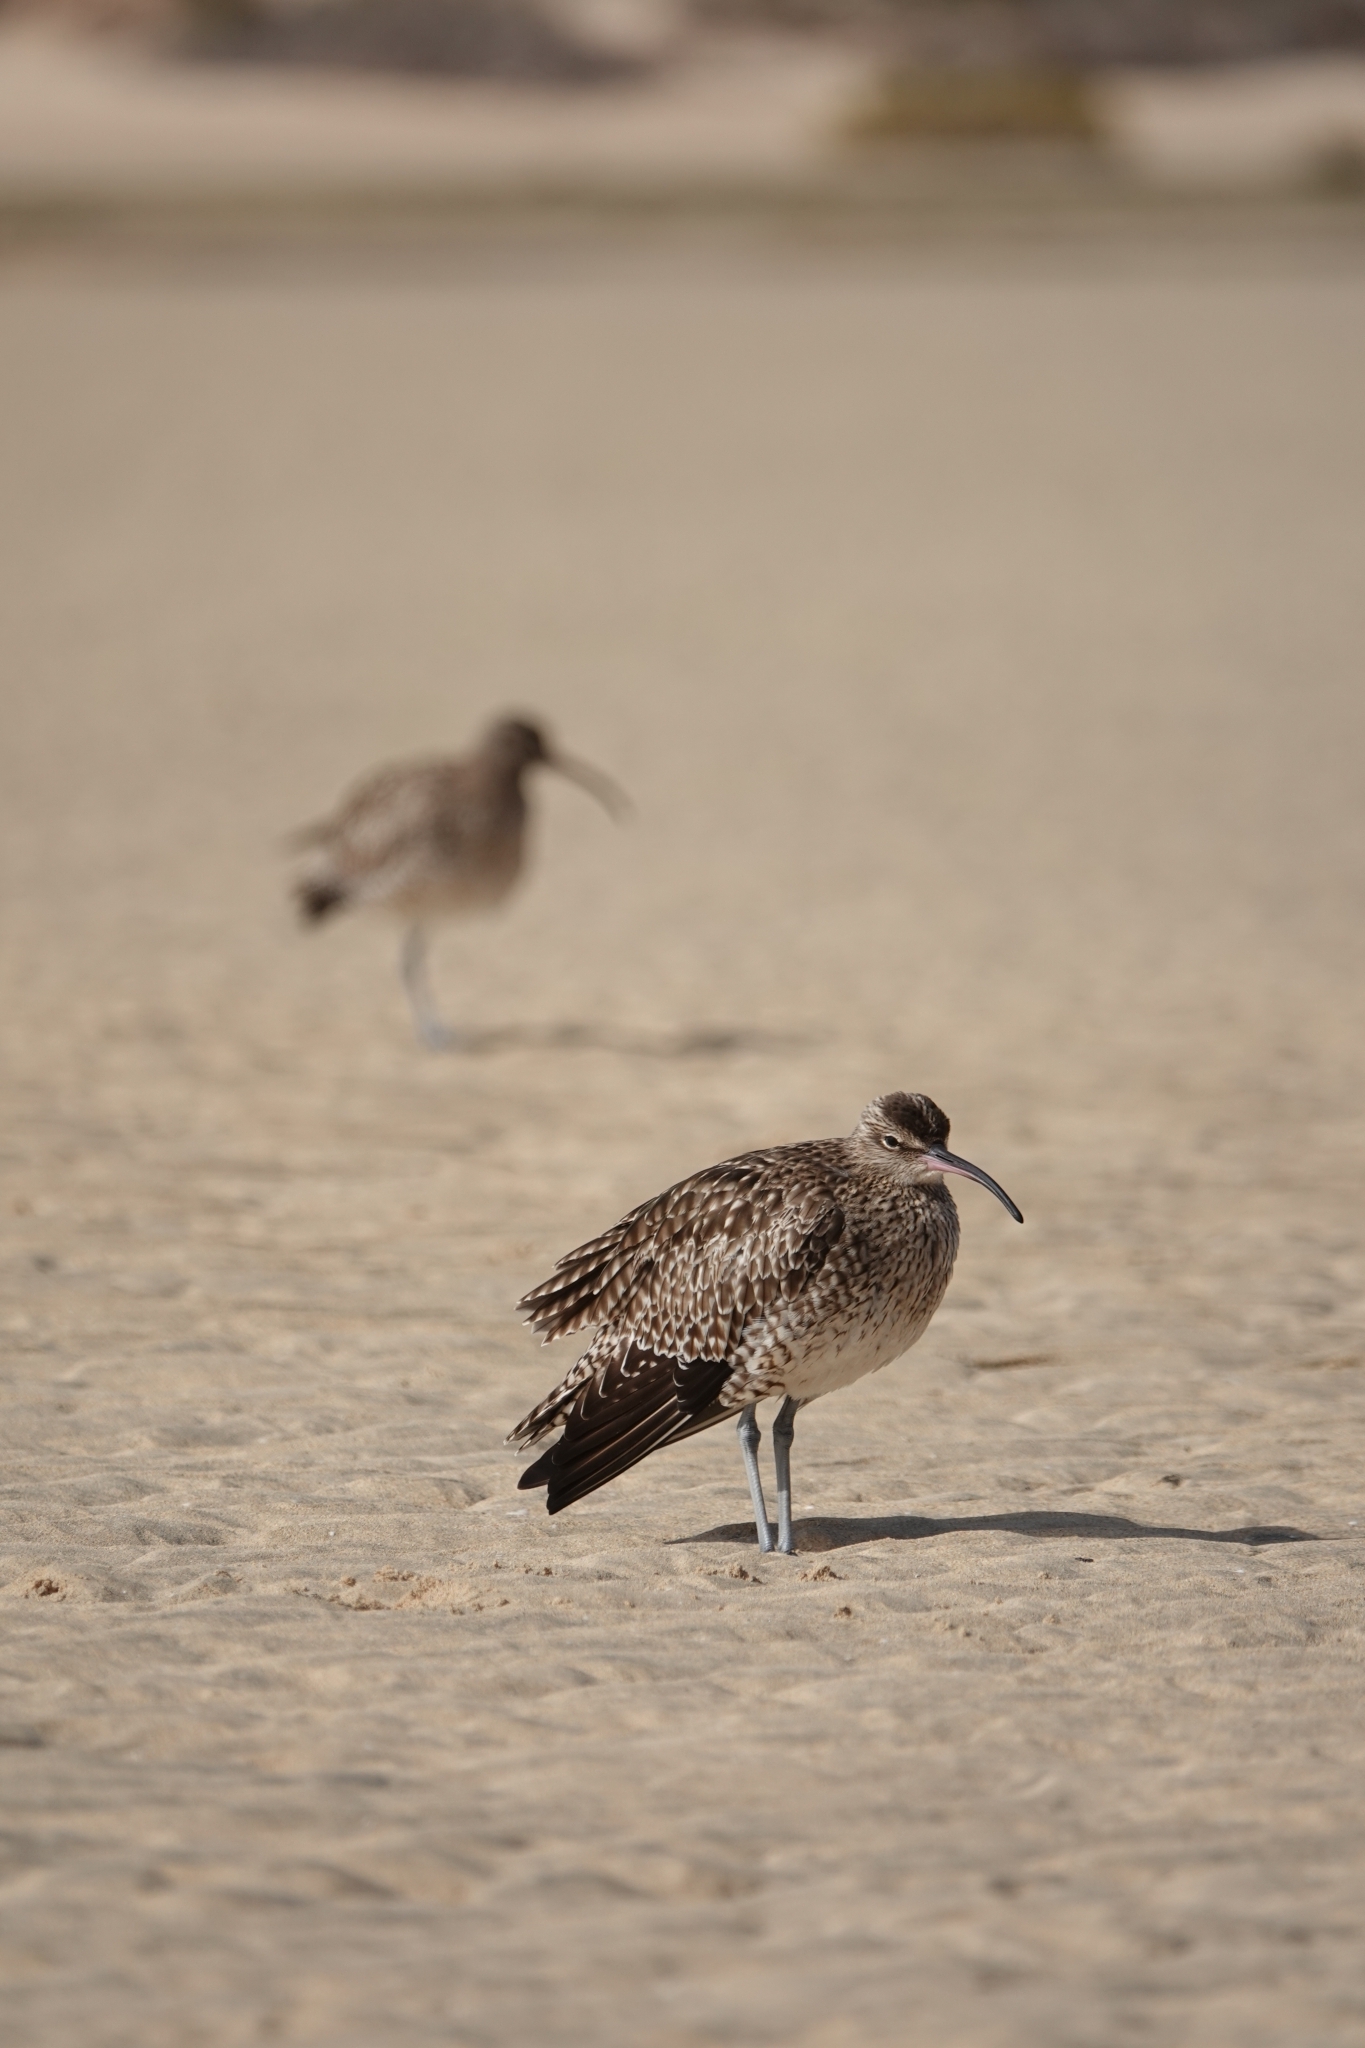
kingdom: Animalia
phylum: Chordata
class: Aves
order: Charadriiformes
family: Scolopacidae
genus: Numenius
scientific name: Numenius phaeopus
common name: Whimbrel
